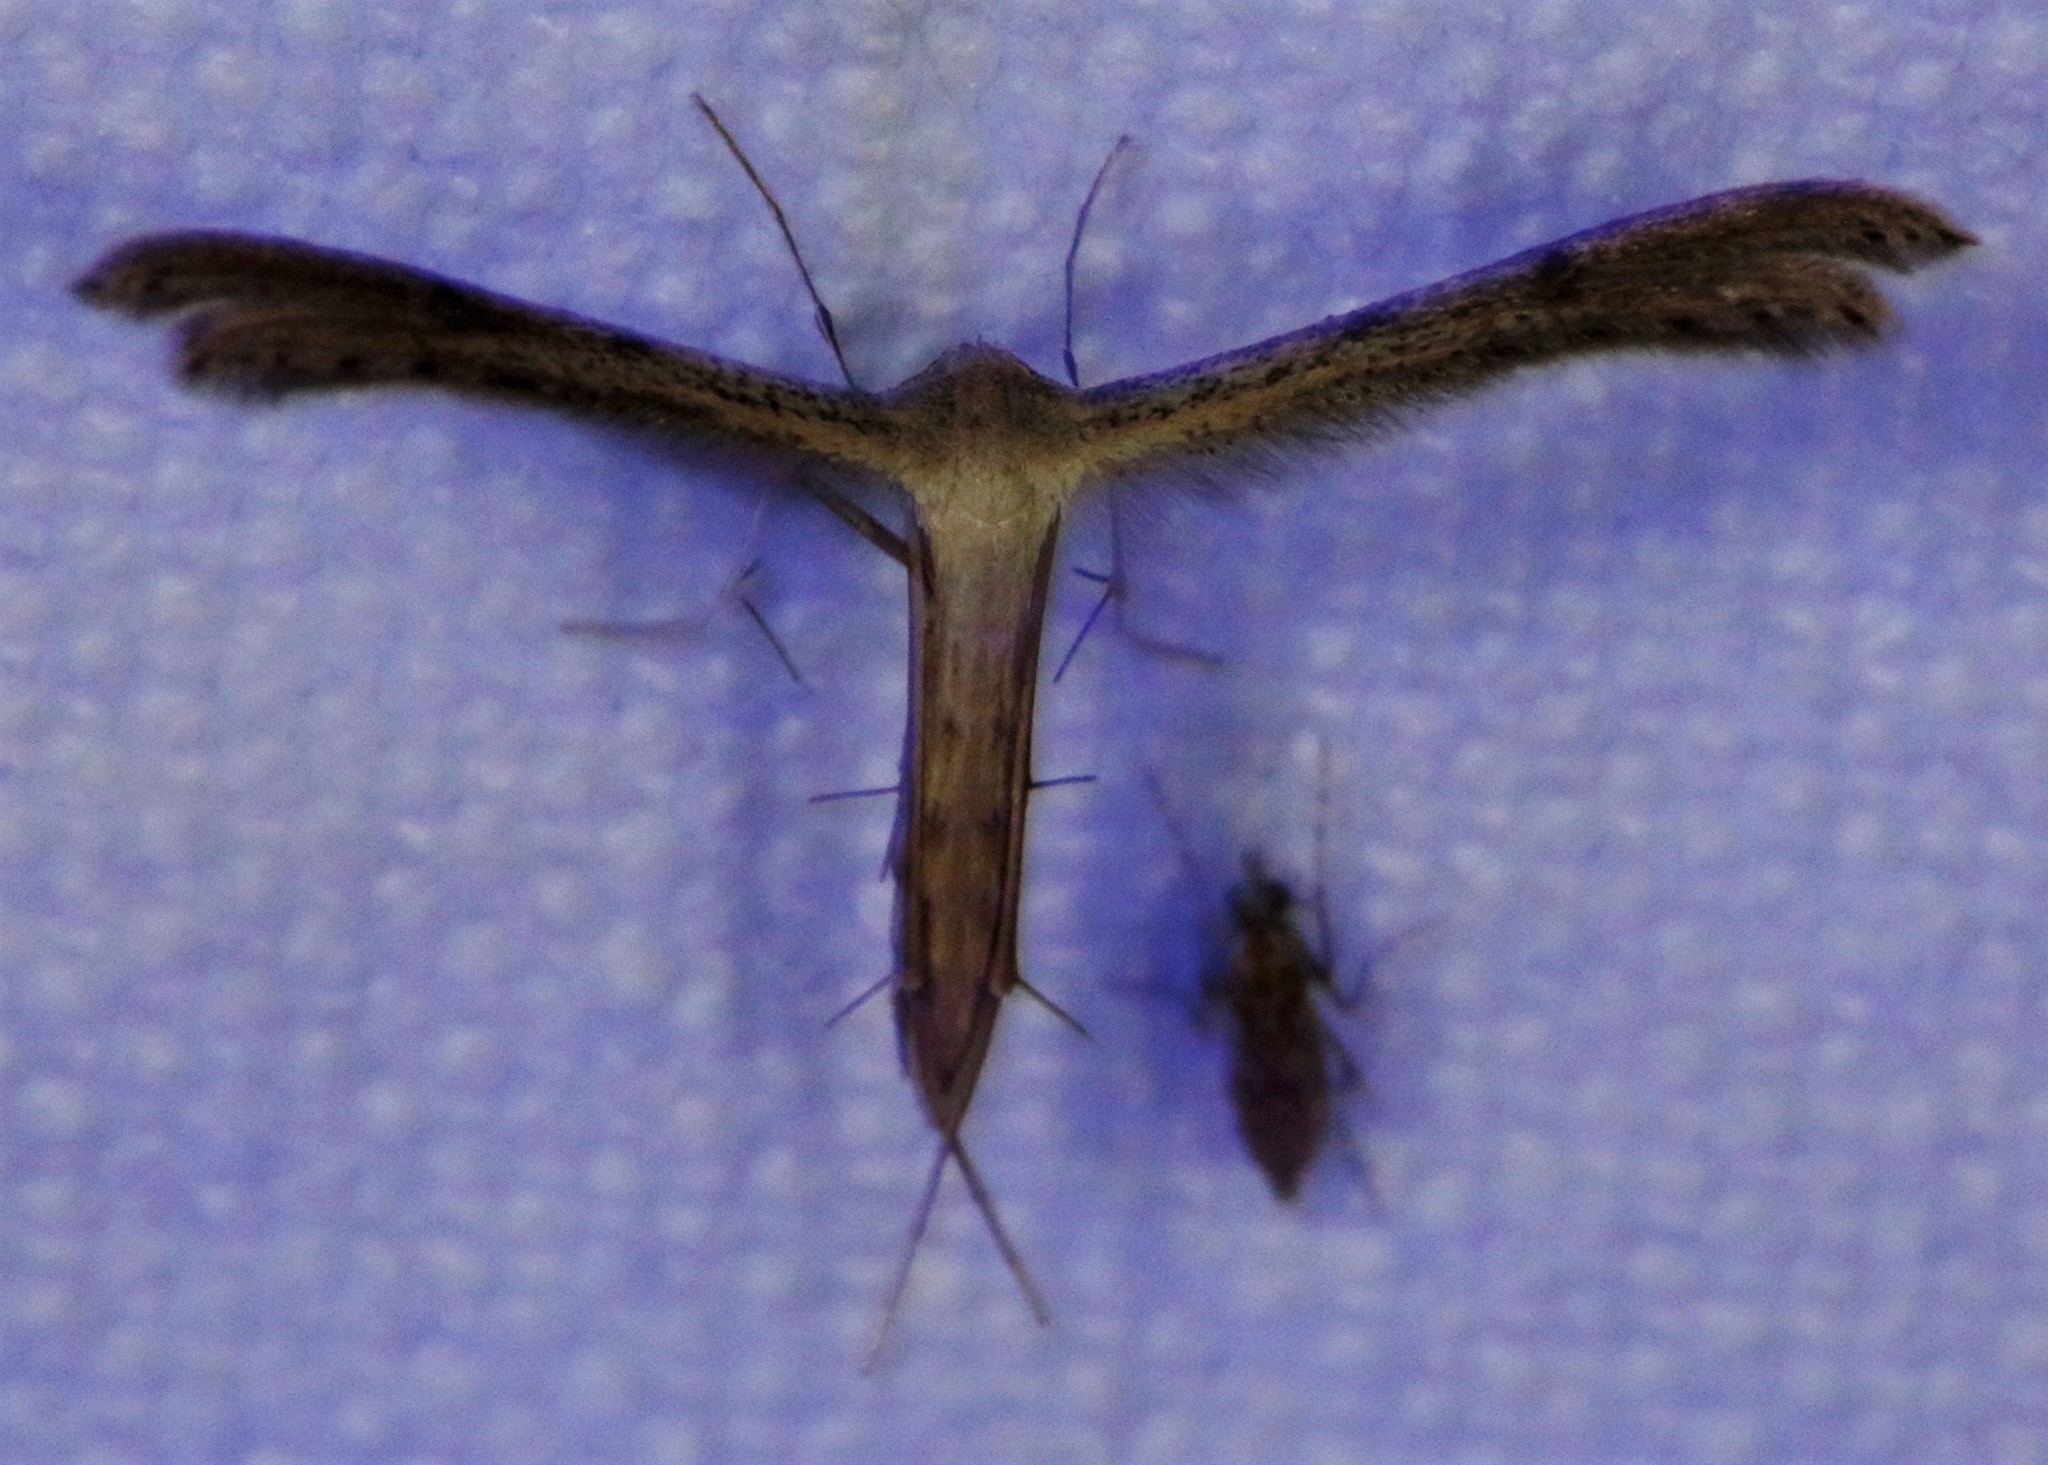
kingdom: Animalia
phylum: Arthropoda
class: Insecta
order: Lepidoptera
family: Pterophoridae
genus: Exelastis
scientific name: Exelastis montischristi
